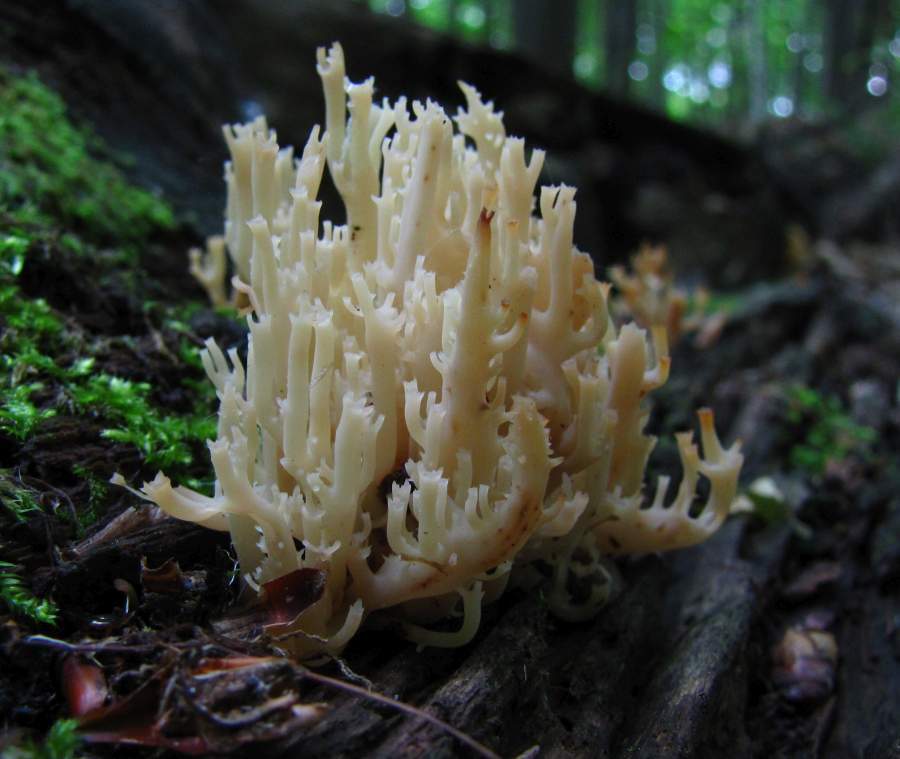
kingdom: Fungi
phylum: Basidiomycota
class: Agaricomycetes
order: Russulales
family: Auriscalpiaceae
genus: Artomyces
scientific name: Artomyces pyxidatus
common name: Crown-tipped coral fungus
